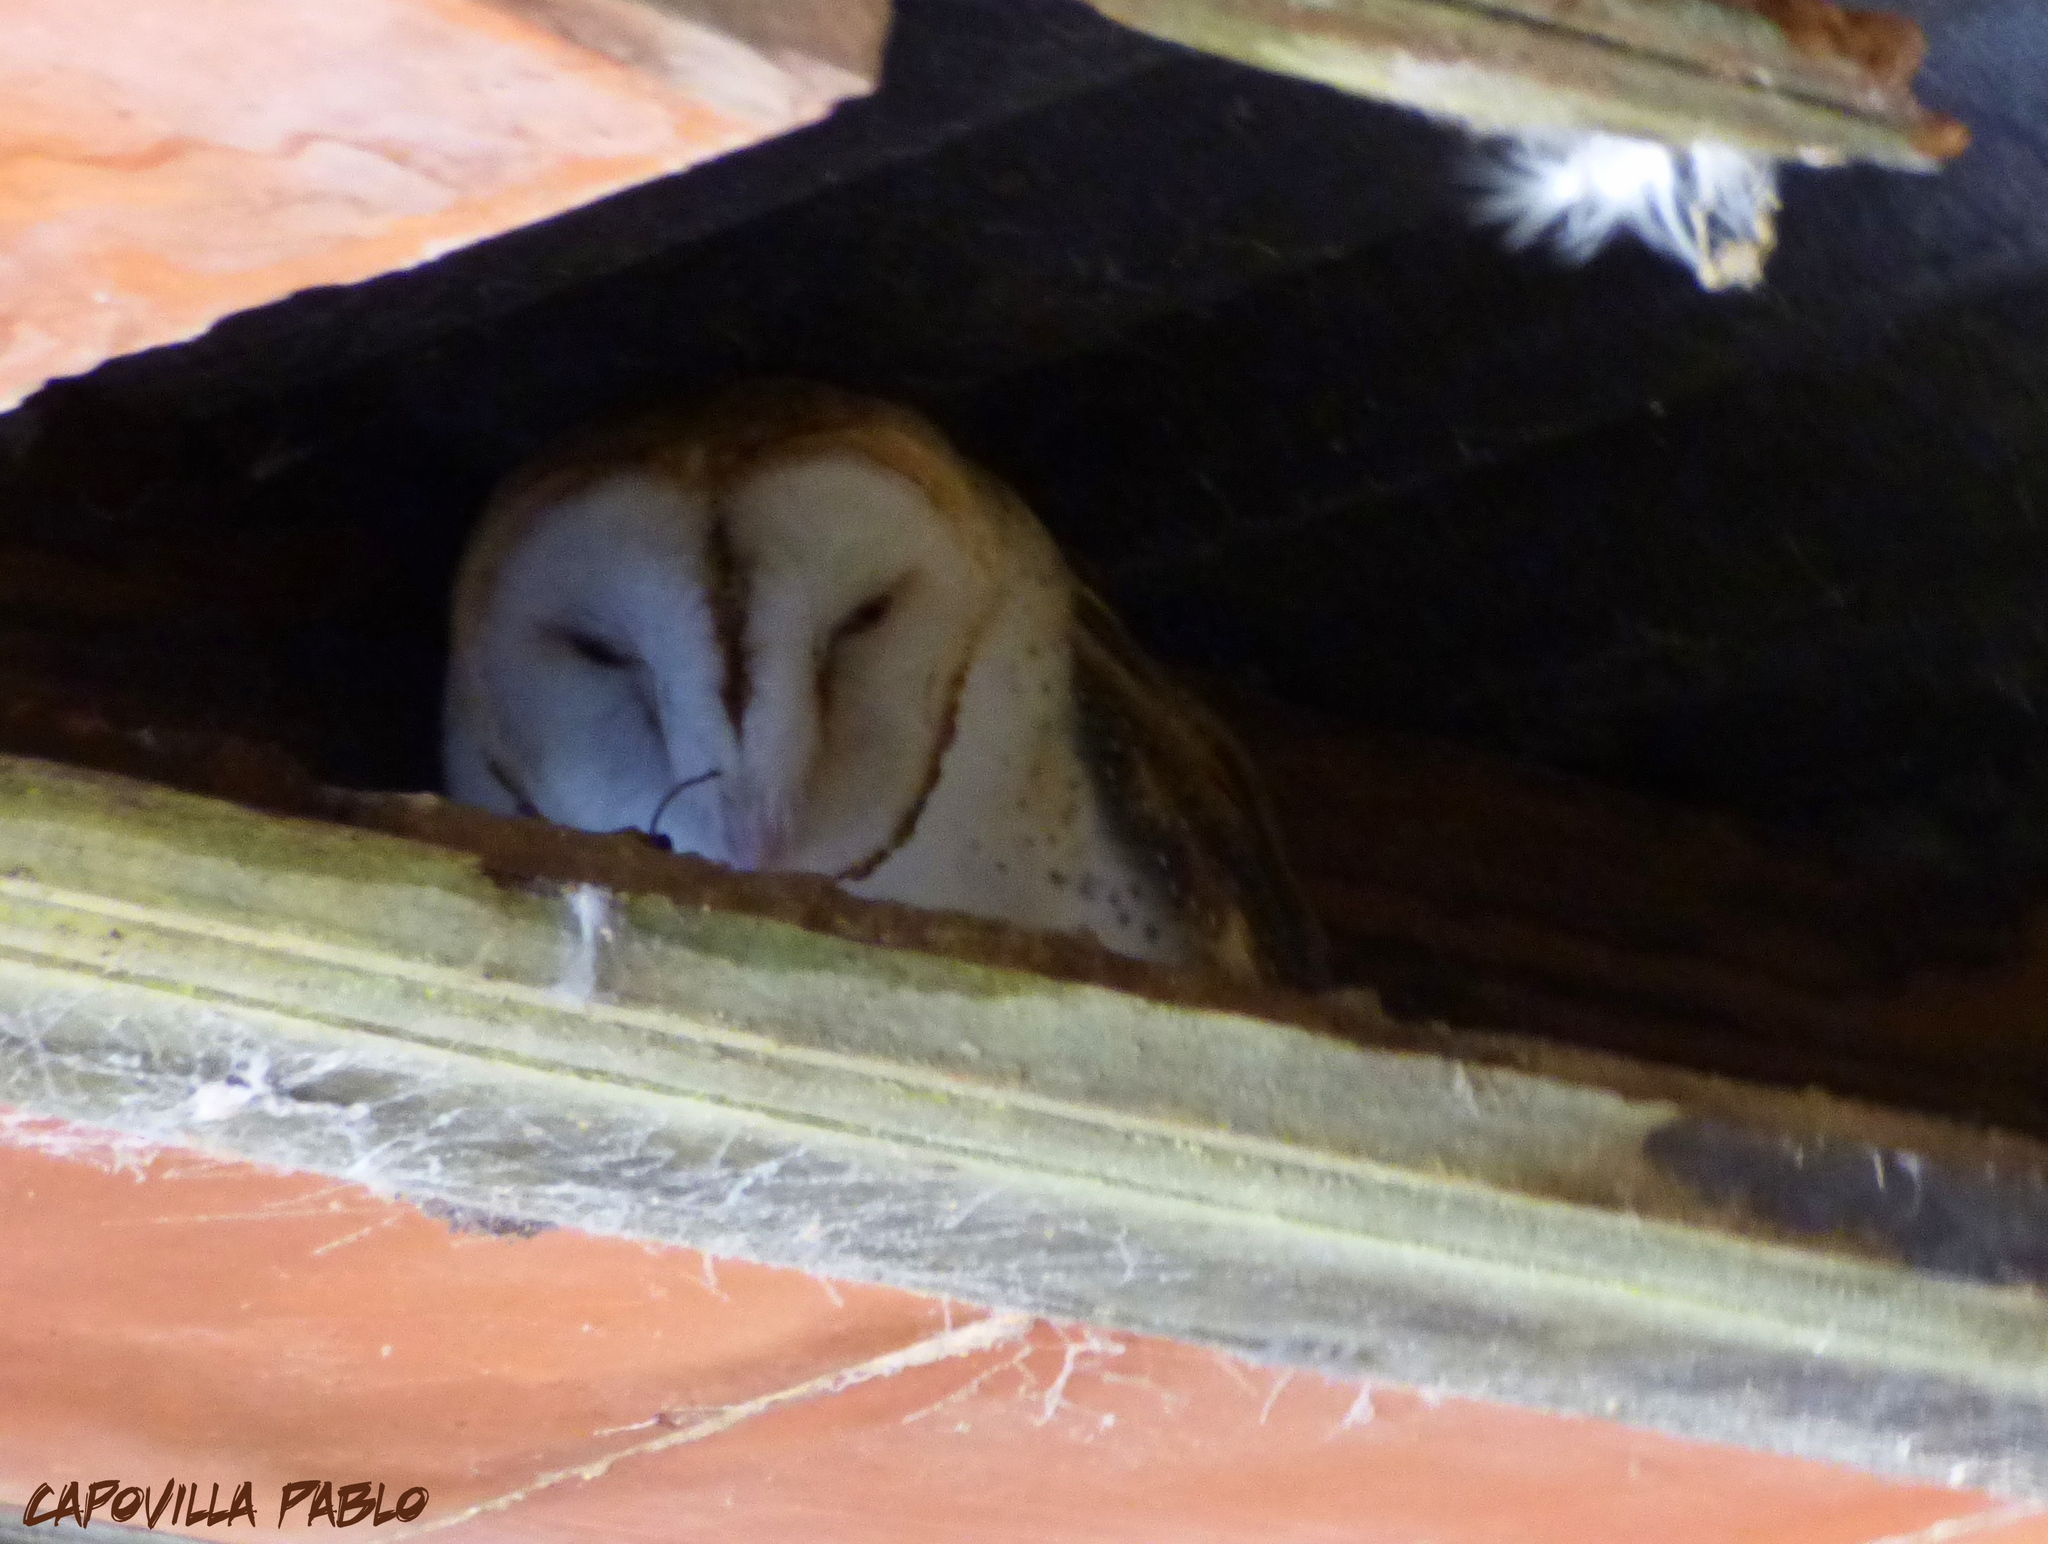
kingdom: Animalia
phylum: Chordata
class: Aves
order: Strigiformes
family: Tytonidae
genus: Tyto
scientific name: Tyto alba
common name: Barn owl
